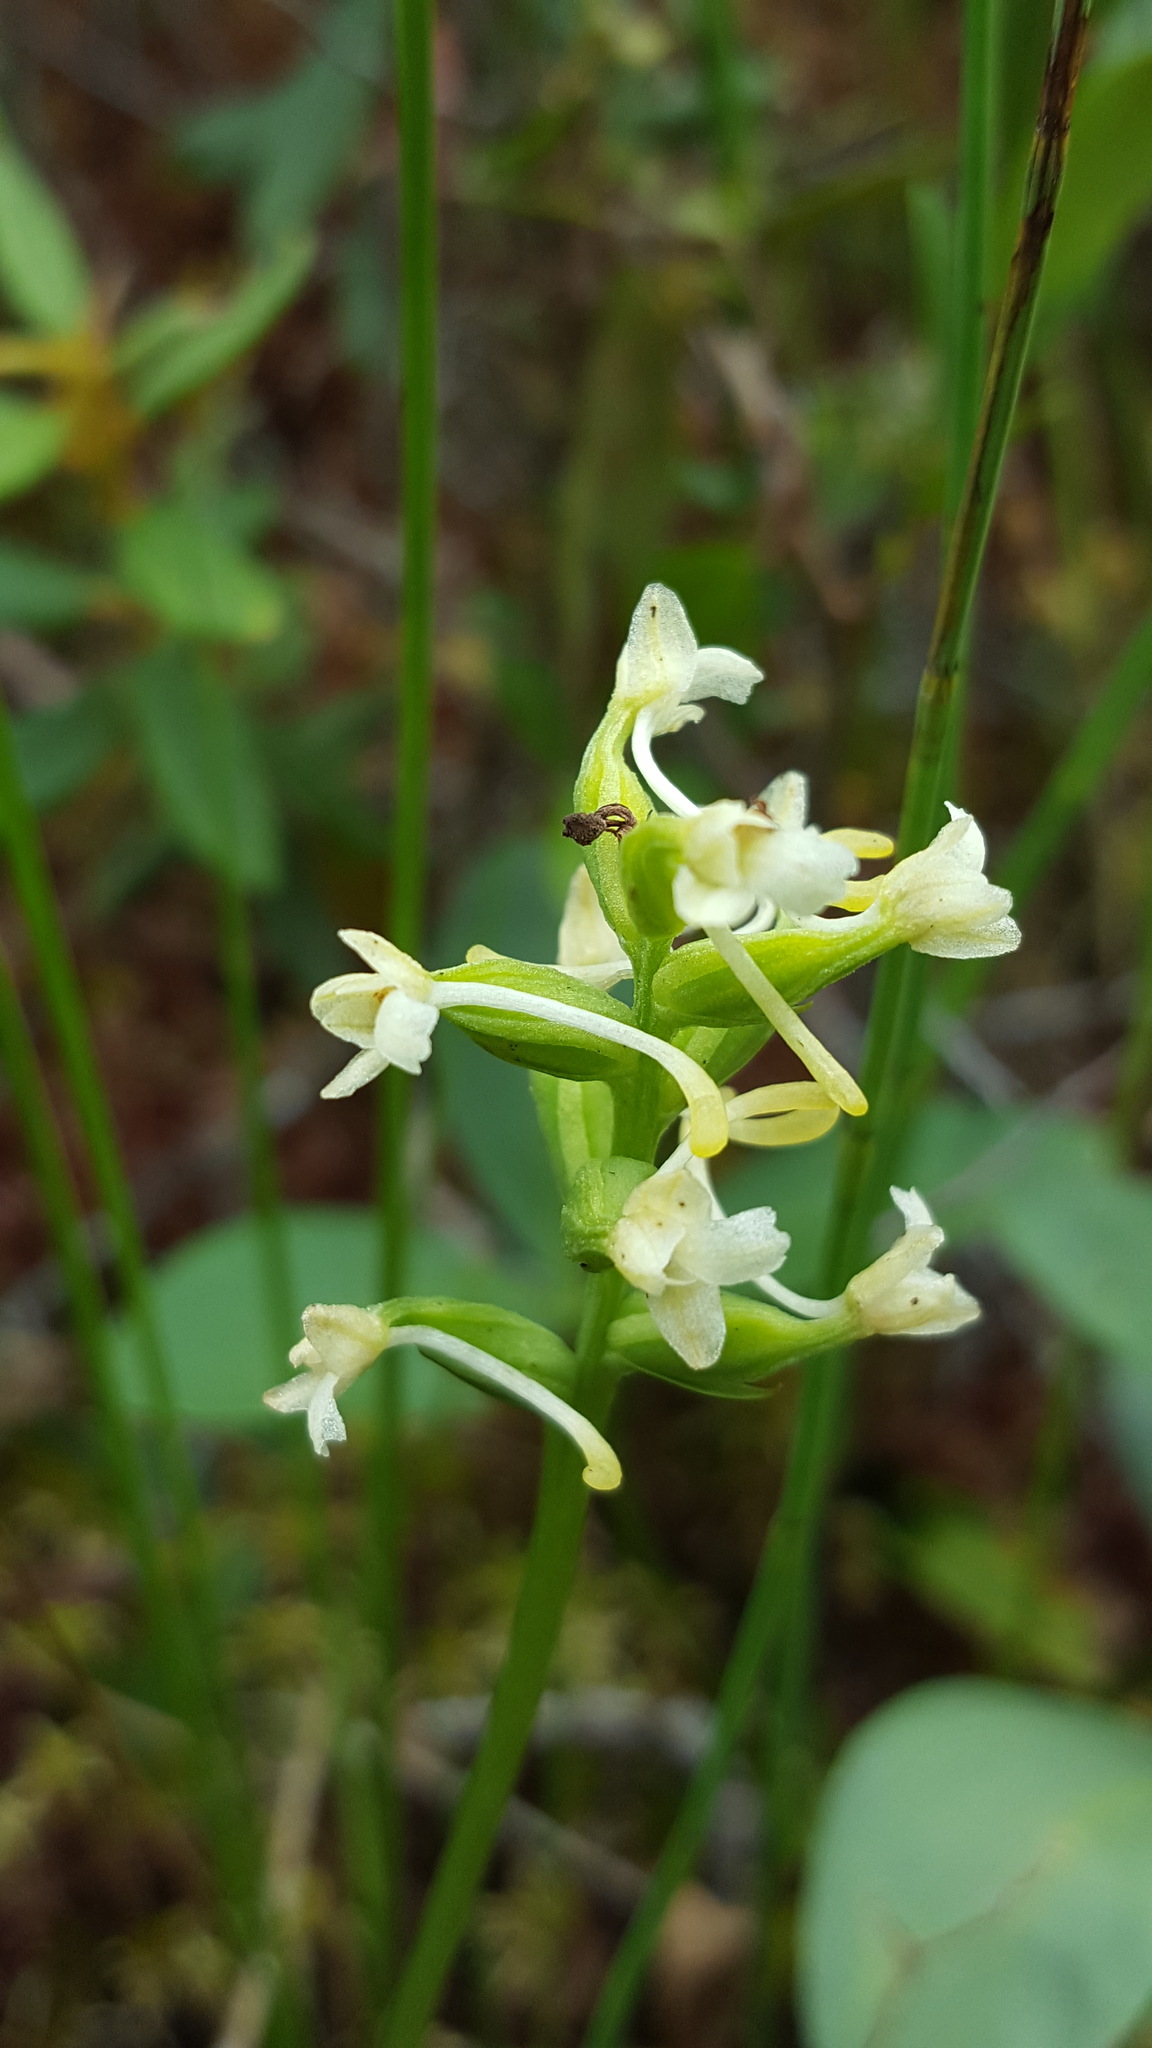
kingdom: Plantae
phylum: Tracheophyta
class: Liliopsida
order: Asparagales
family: Orchidaceae
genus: Platanthera
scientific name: Platanthera clavellata
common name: Club-spur orchid
